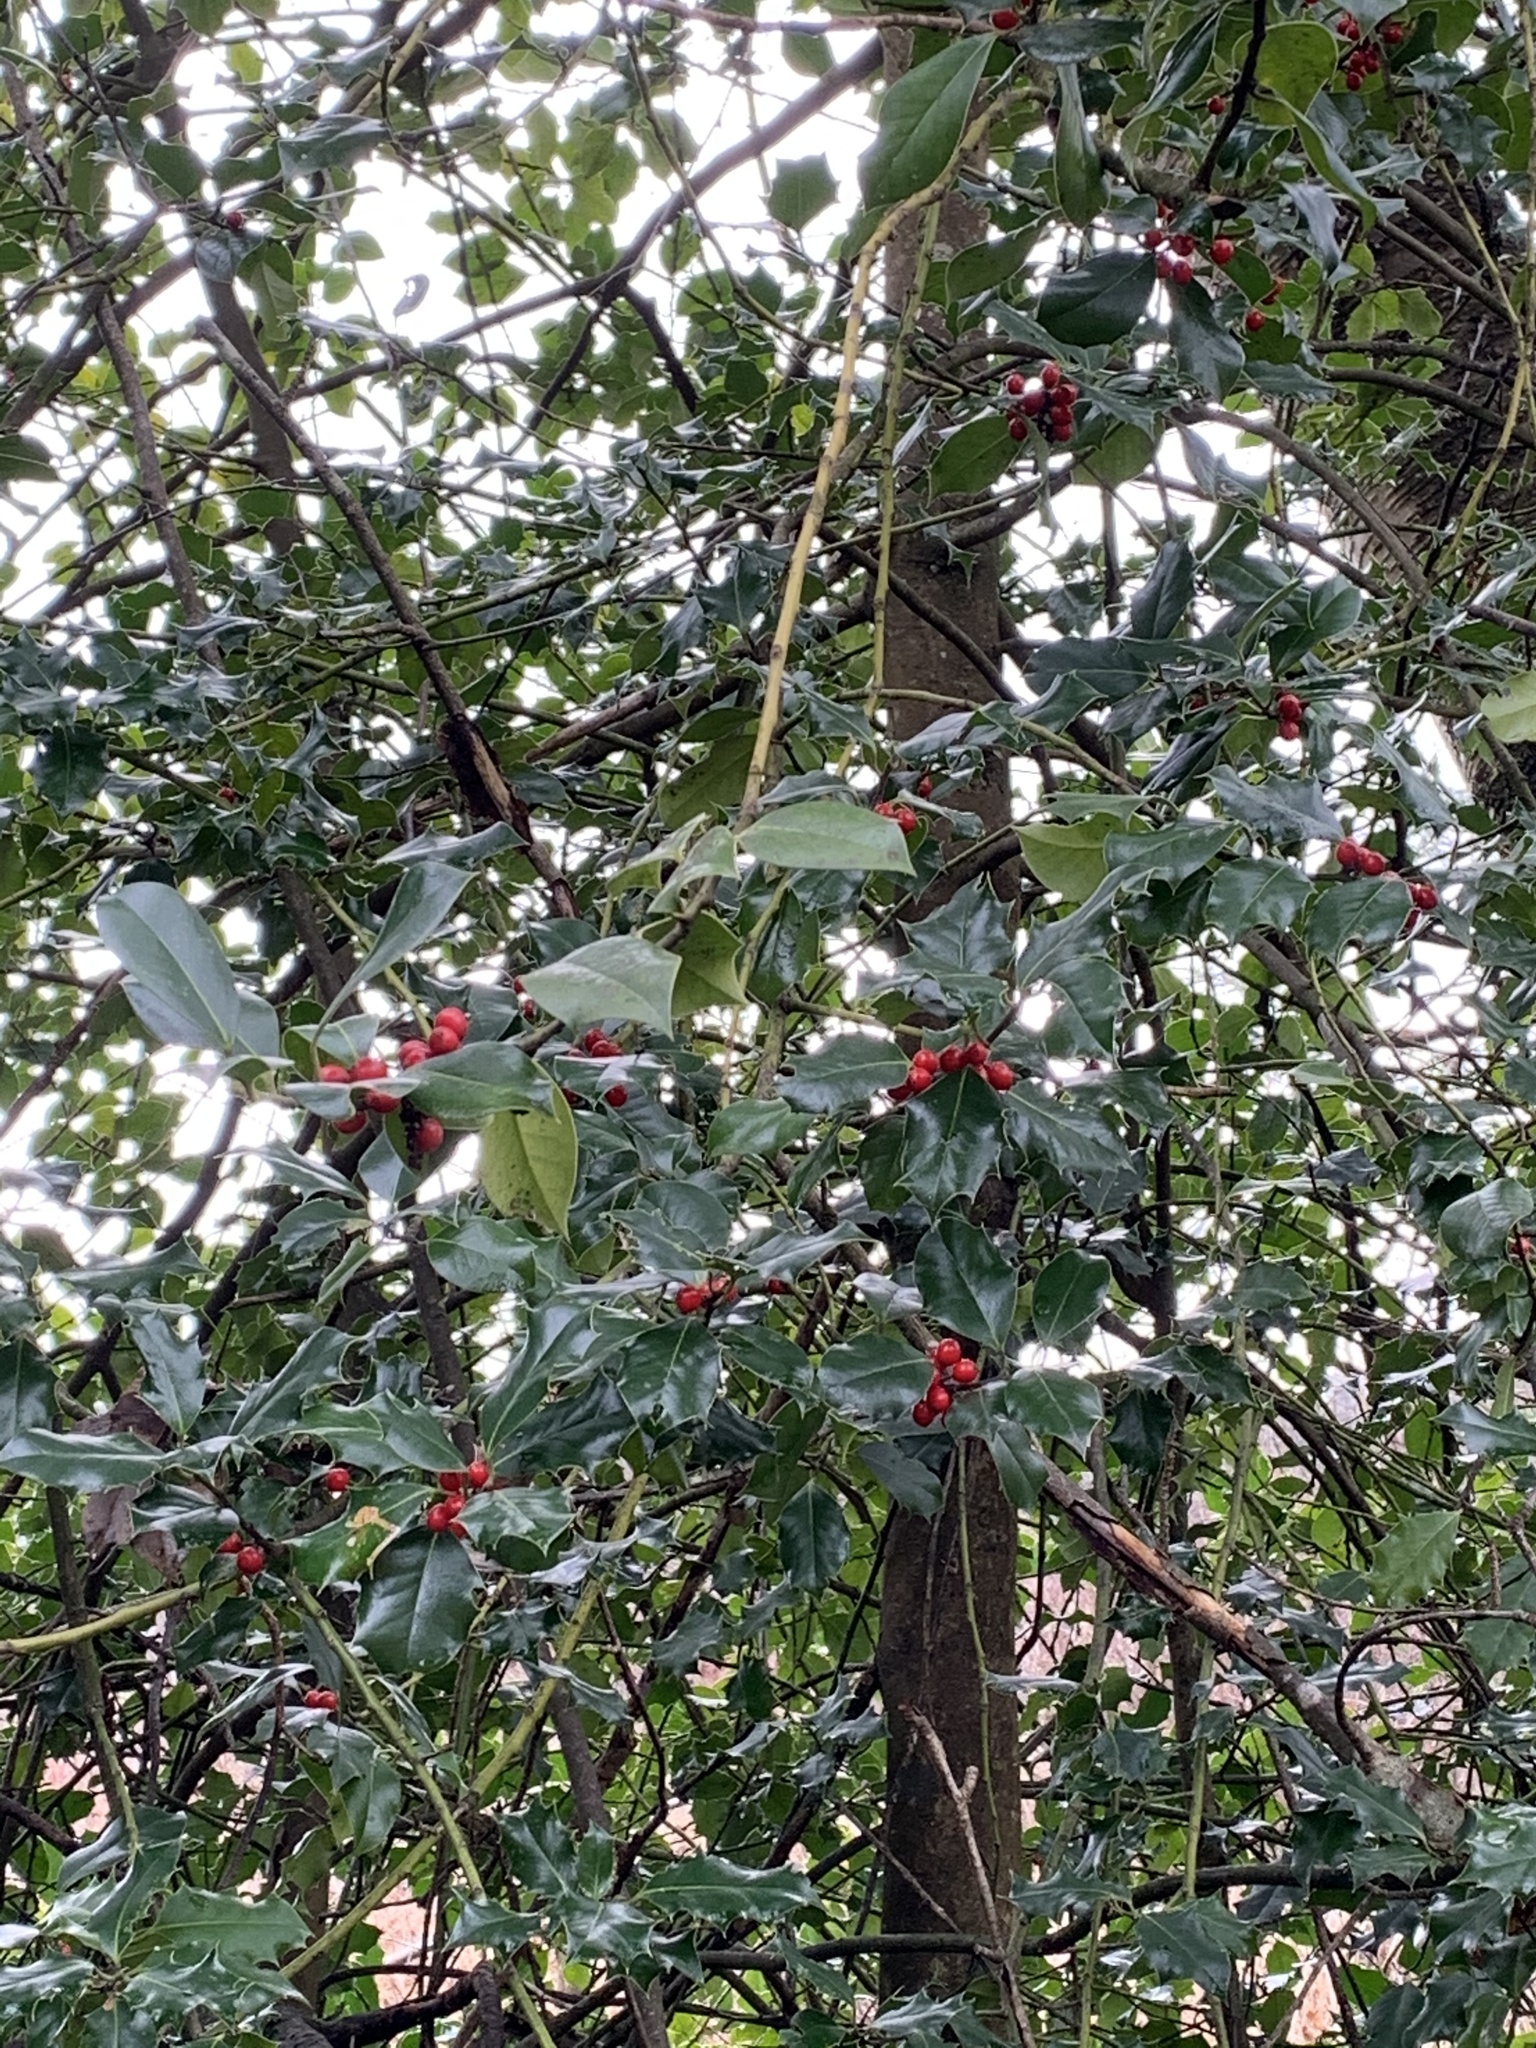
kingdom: Plantae
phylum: Tracheophyta
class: Magnoliopsida
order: Aquifoliales
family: Aquifoliaceae
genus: Ilex
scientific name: Ilex aquifolium
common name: English holly
